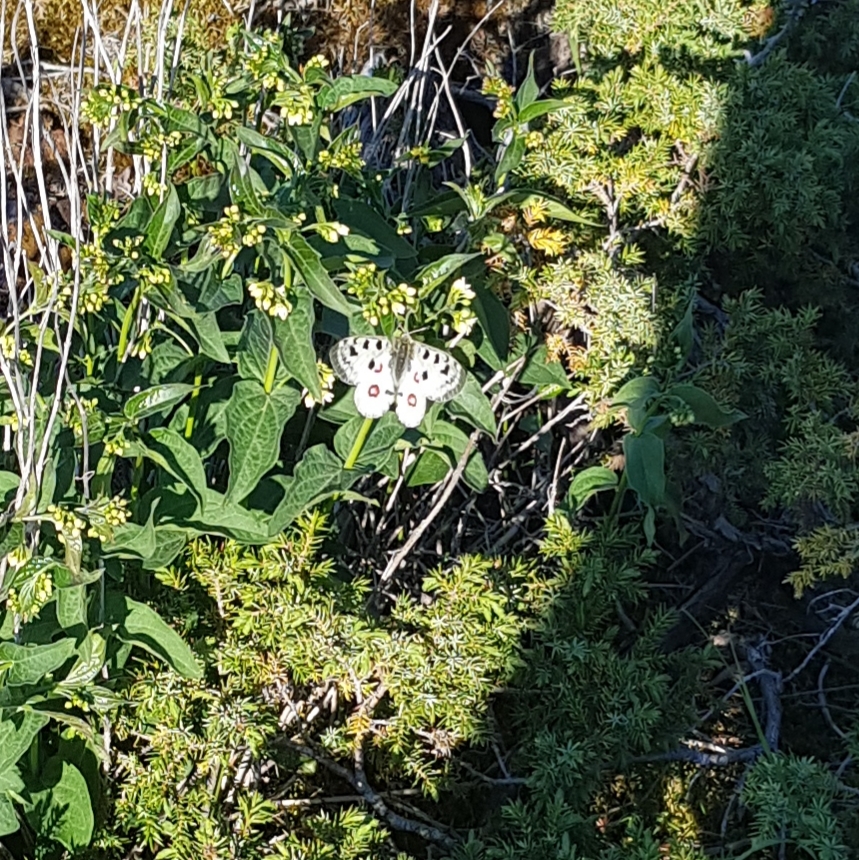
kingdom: Animalia
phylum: Arthropoda
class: Insecta
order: Lepidoptera
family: Papilionidae
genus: Parnassius
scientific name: Parnassius apollo
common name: Apollo
